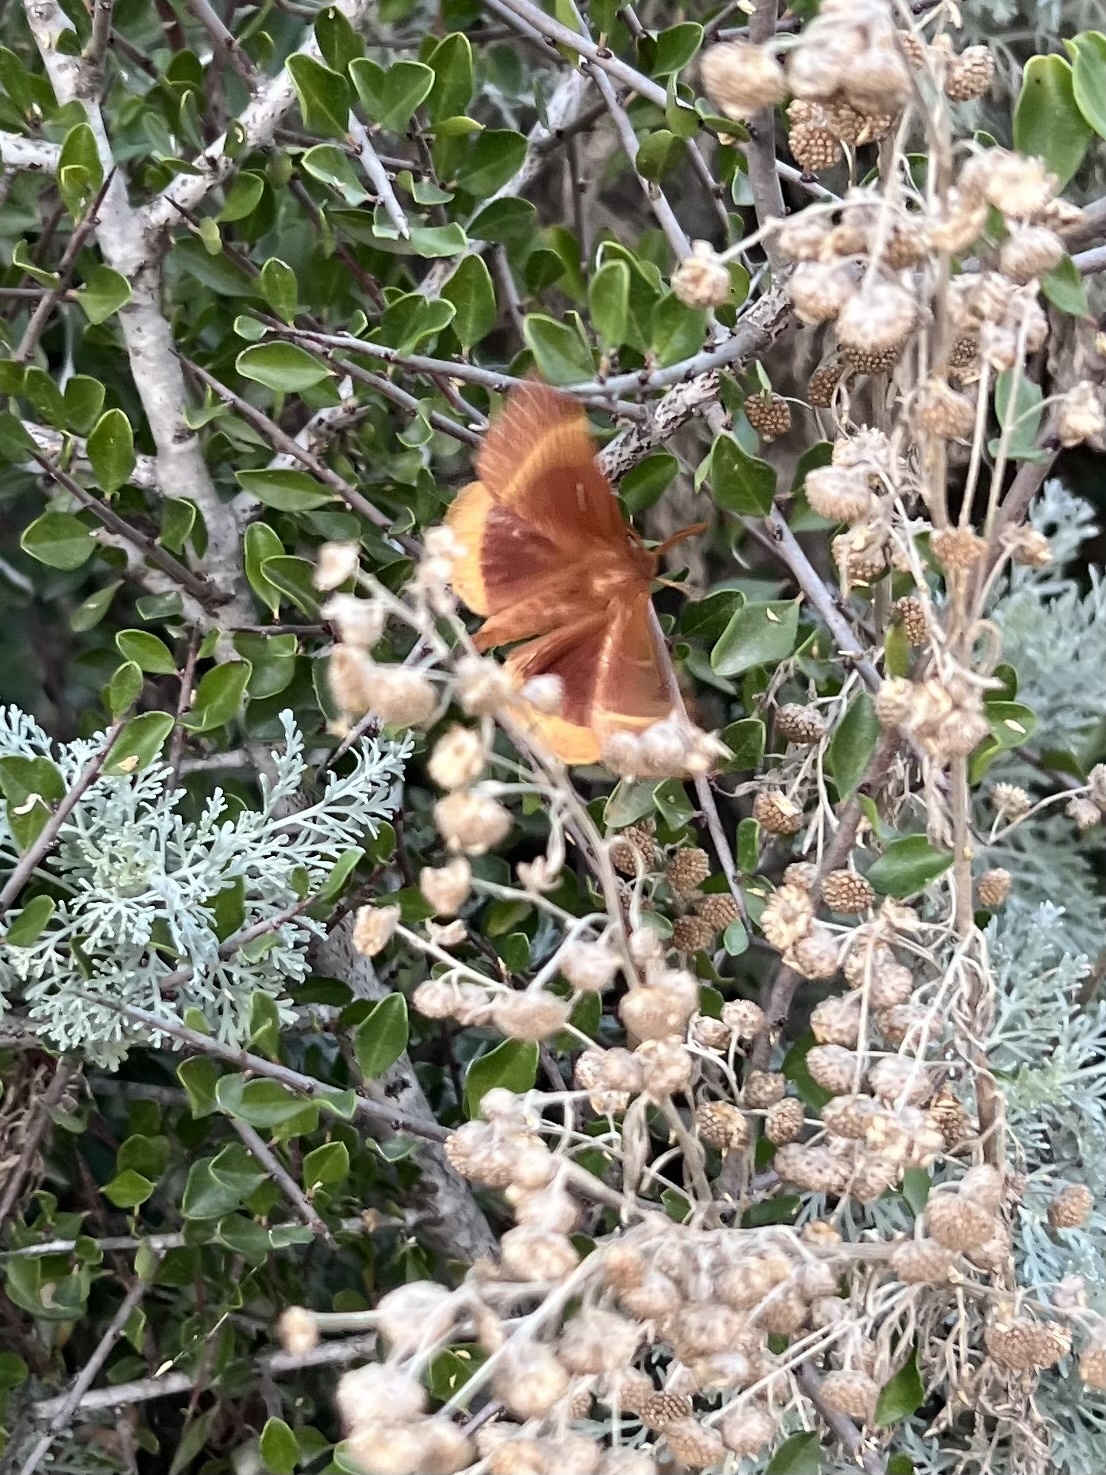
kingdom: Animalia
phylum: Arthropoda
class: Insecta
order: Lepidoptera
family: Lasiocampidae
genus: Lasiocampa
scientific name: Lasiocampa quercus
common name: Oak eggar
